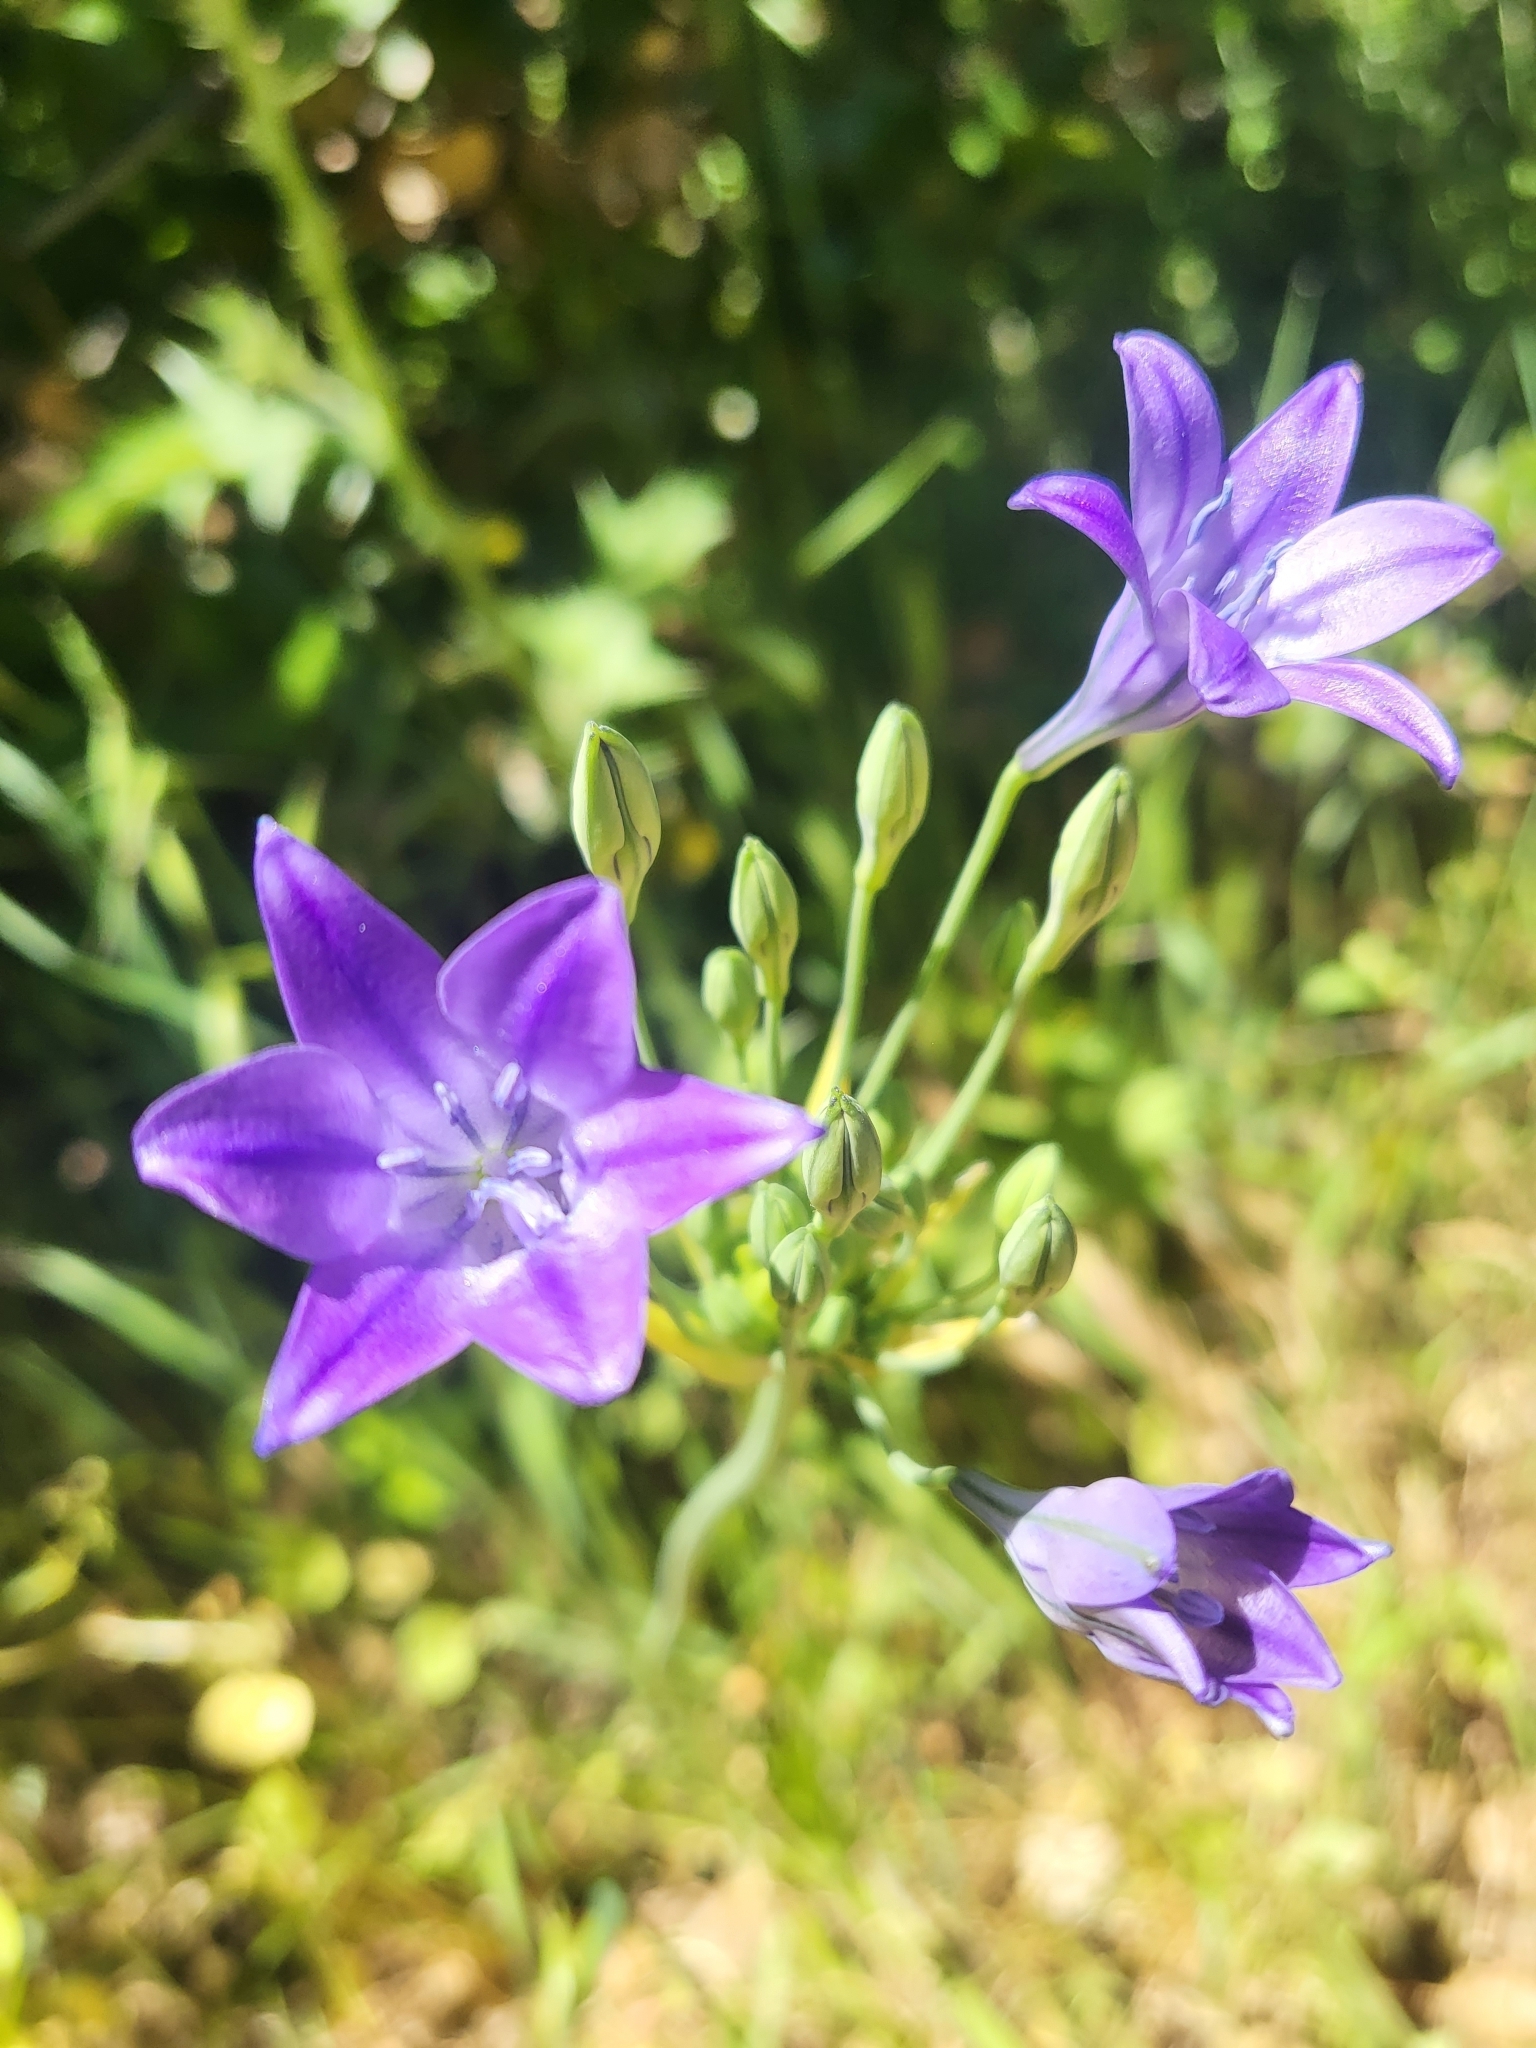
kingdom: Plantae
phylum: Tracheophyta
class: Liliopsida
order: Asparagales
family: Asparagaceae
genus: Triteleia
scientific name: Triteleia laxa
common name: Triplet-lily
